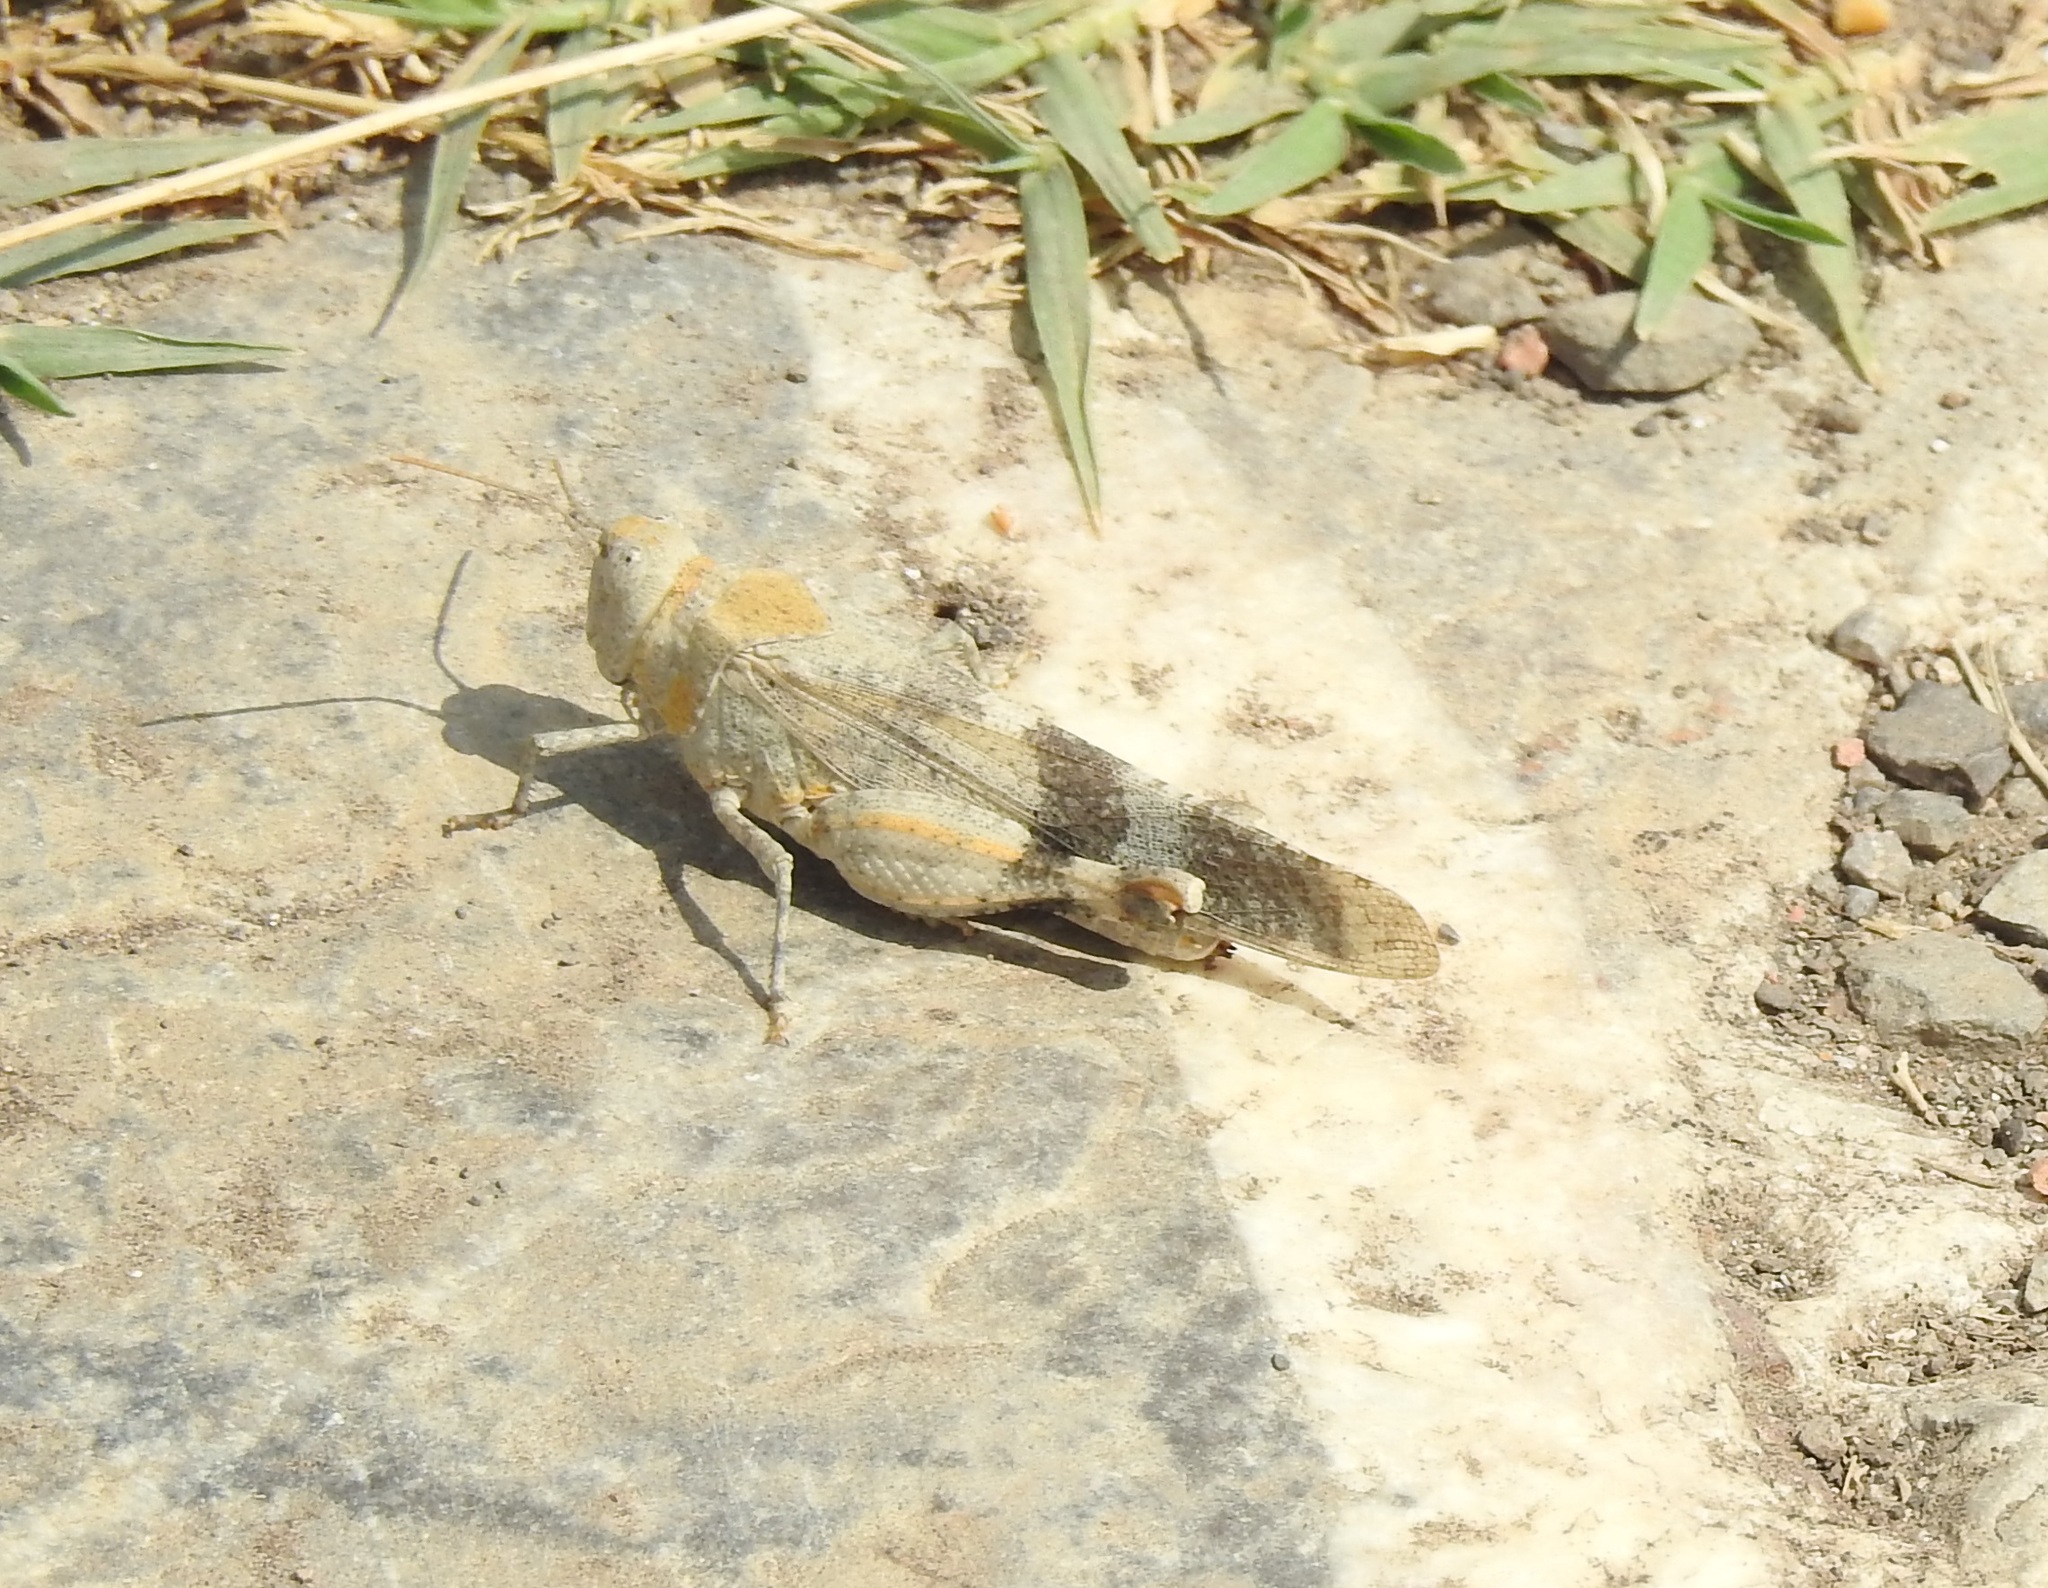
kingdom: Animalia
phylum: Arthropoda
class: Insecta
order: Orthoptera
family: Acrididae
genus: Oedipoda
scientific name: Oedipoda fuscocincta
